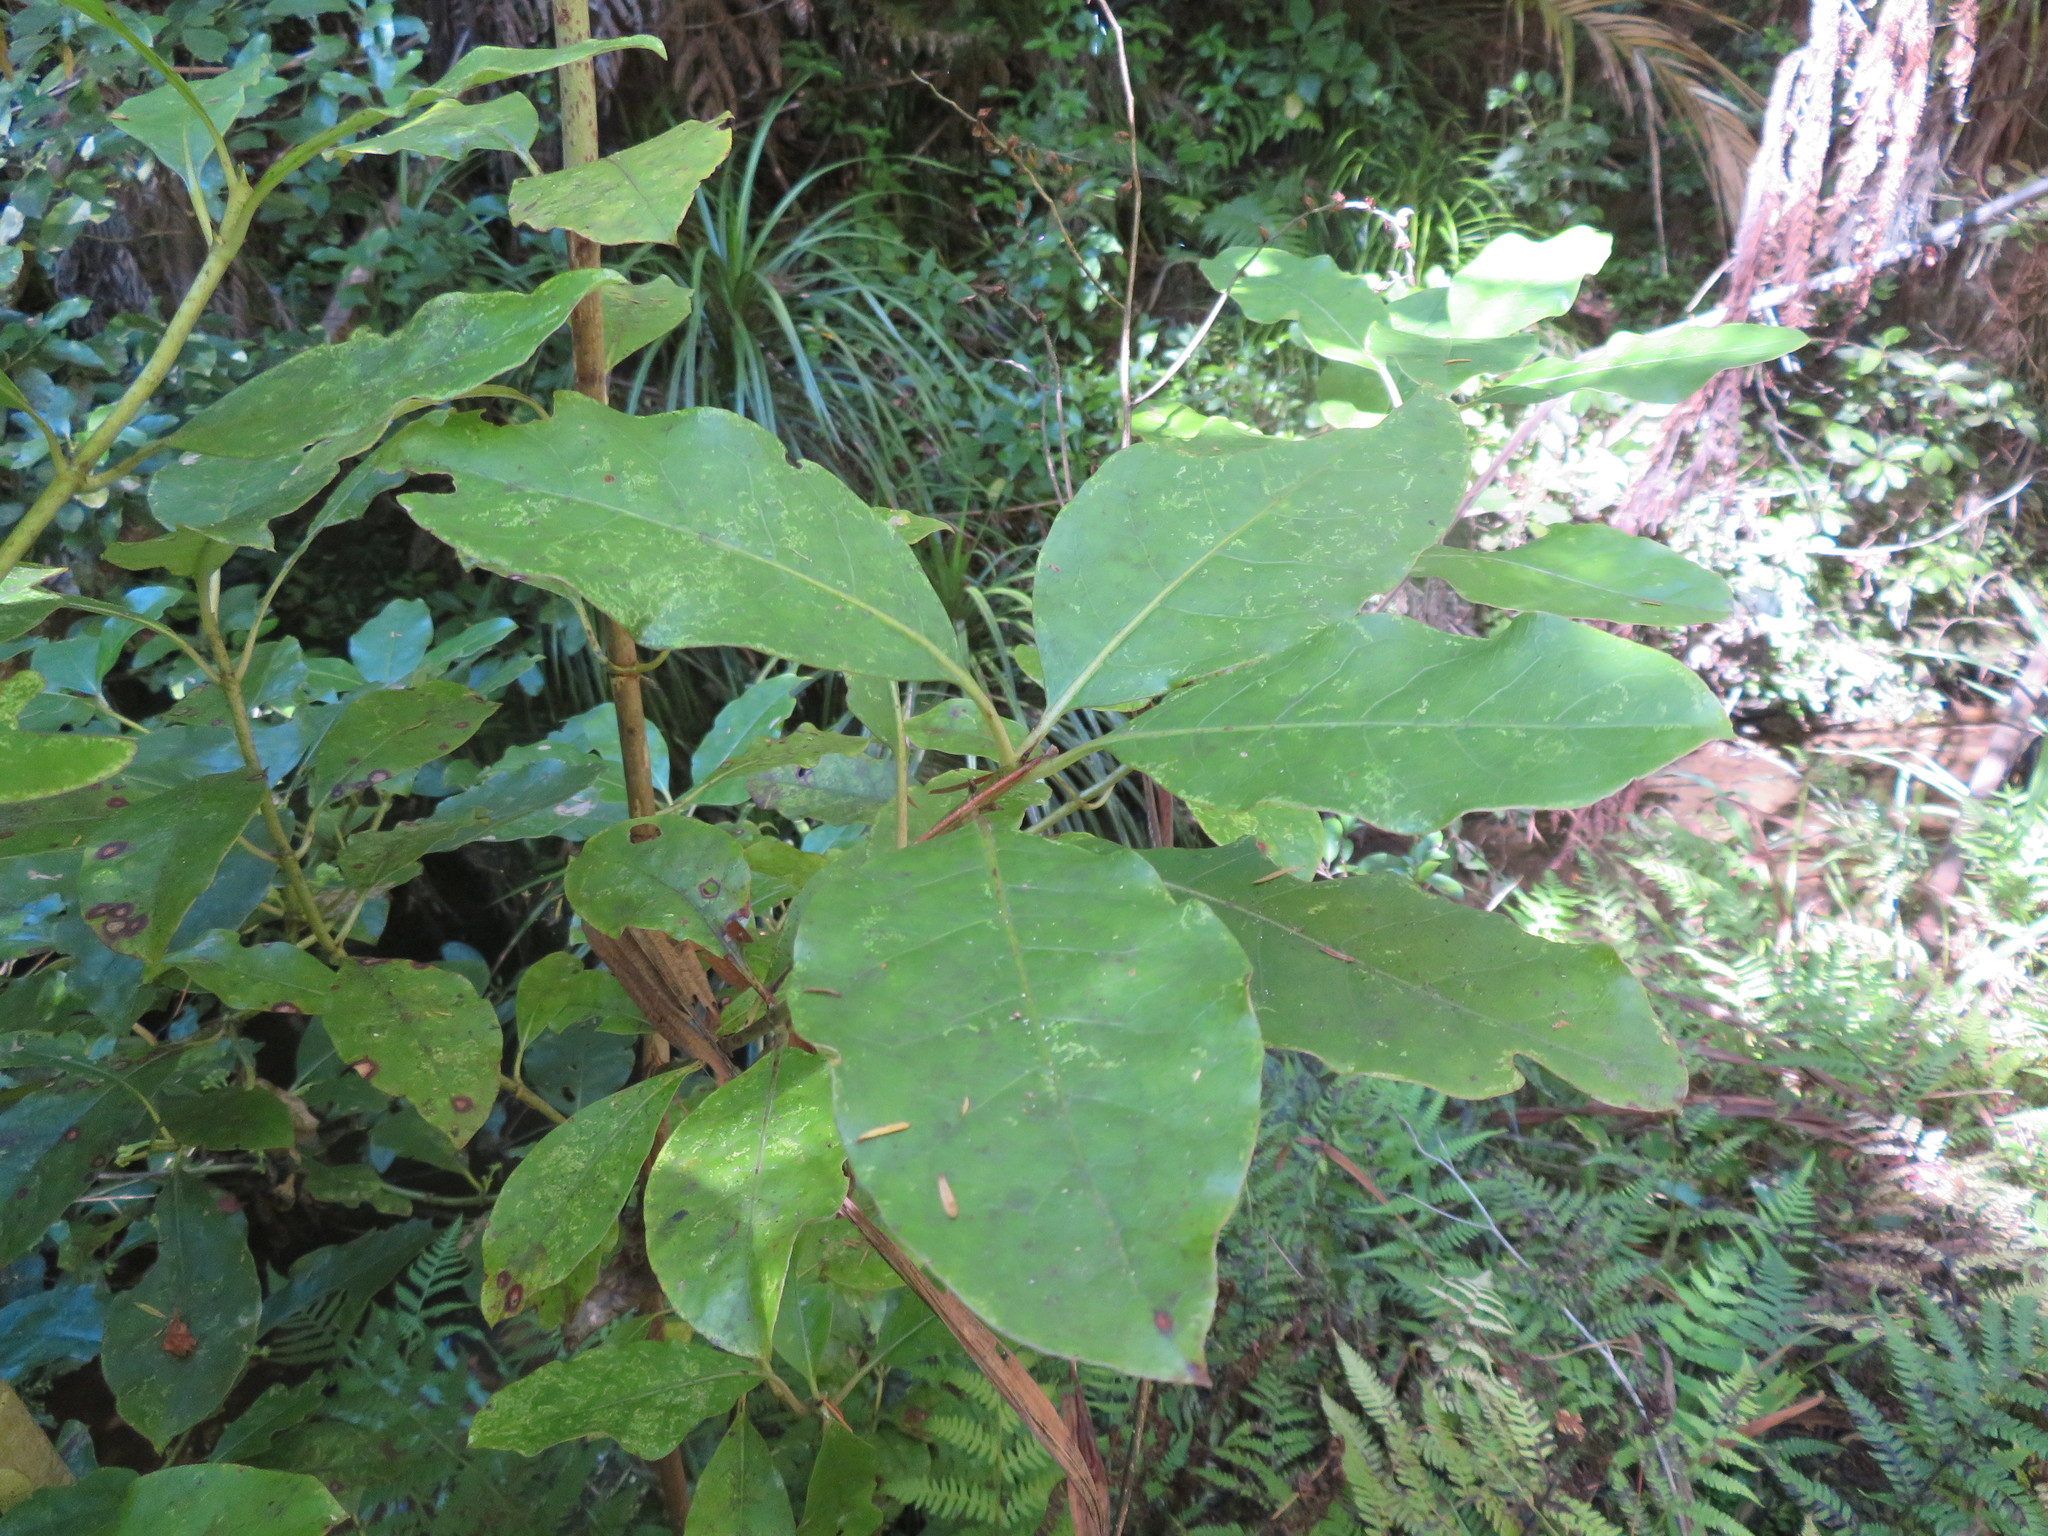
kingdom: Plantae
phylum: Tracheophyta
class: Magnoliopsida
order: Gentianales
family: Rubiaceae
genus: Coprosma
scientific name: Coprosma autumnalis
